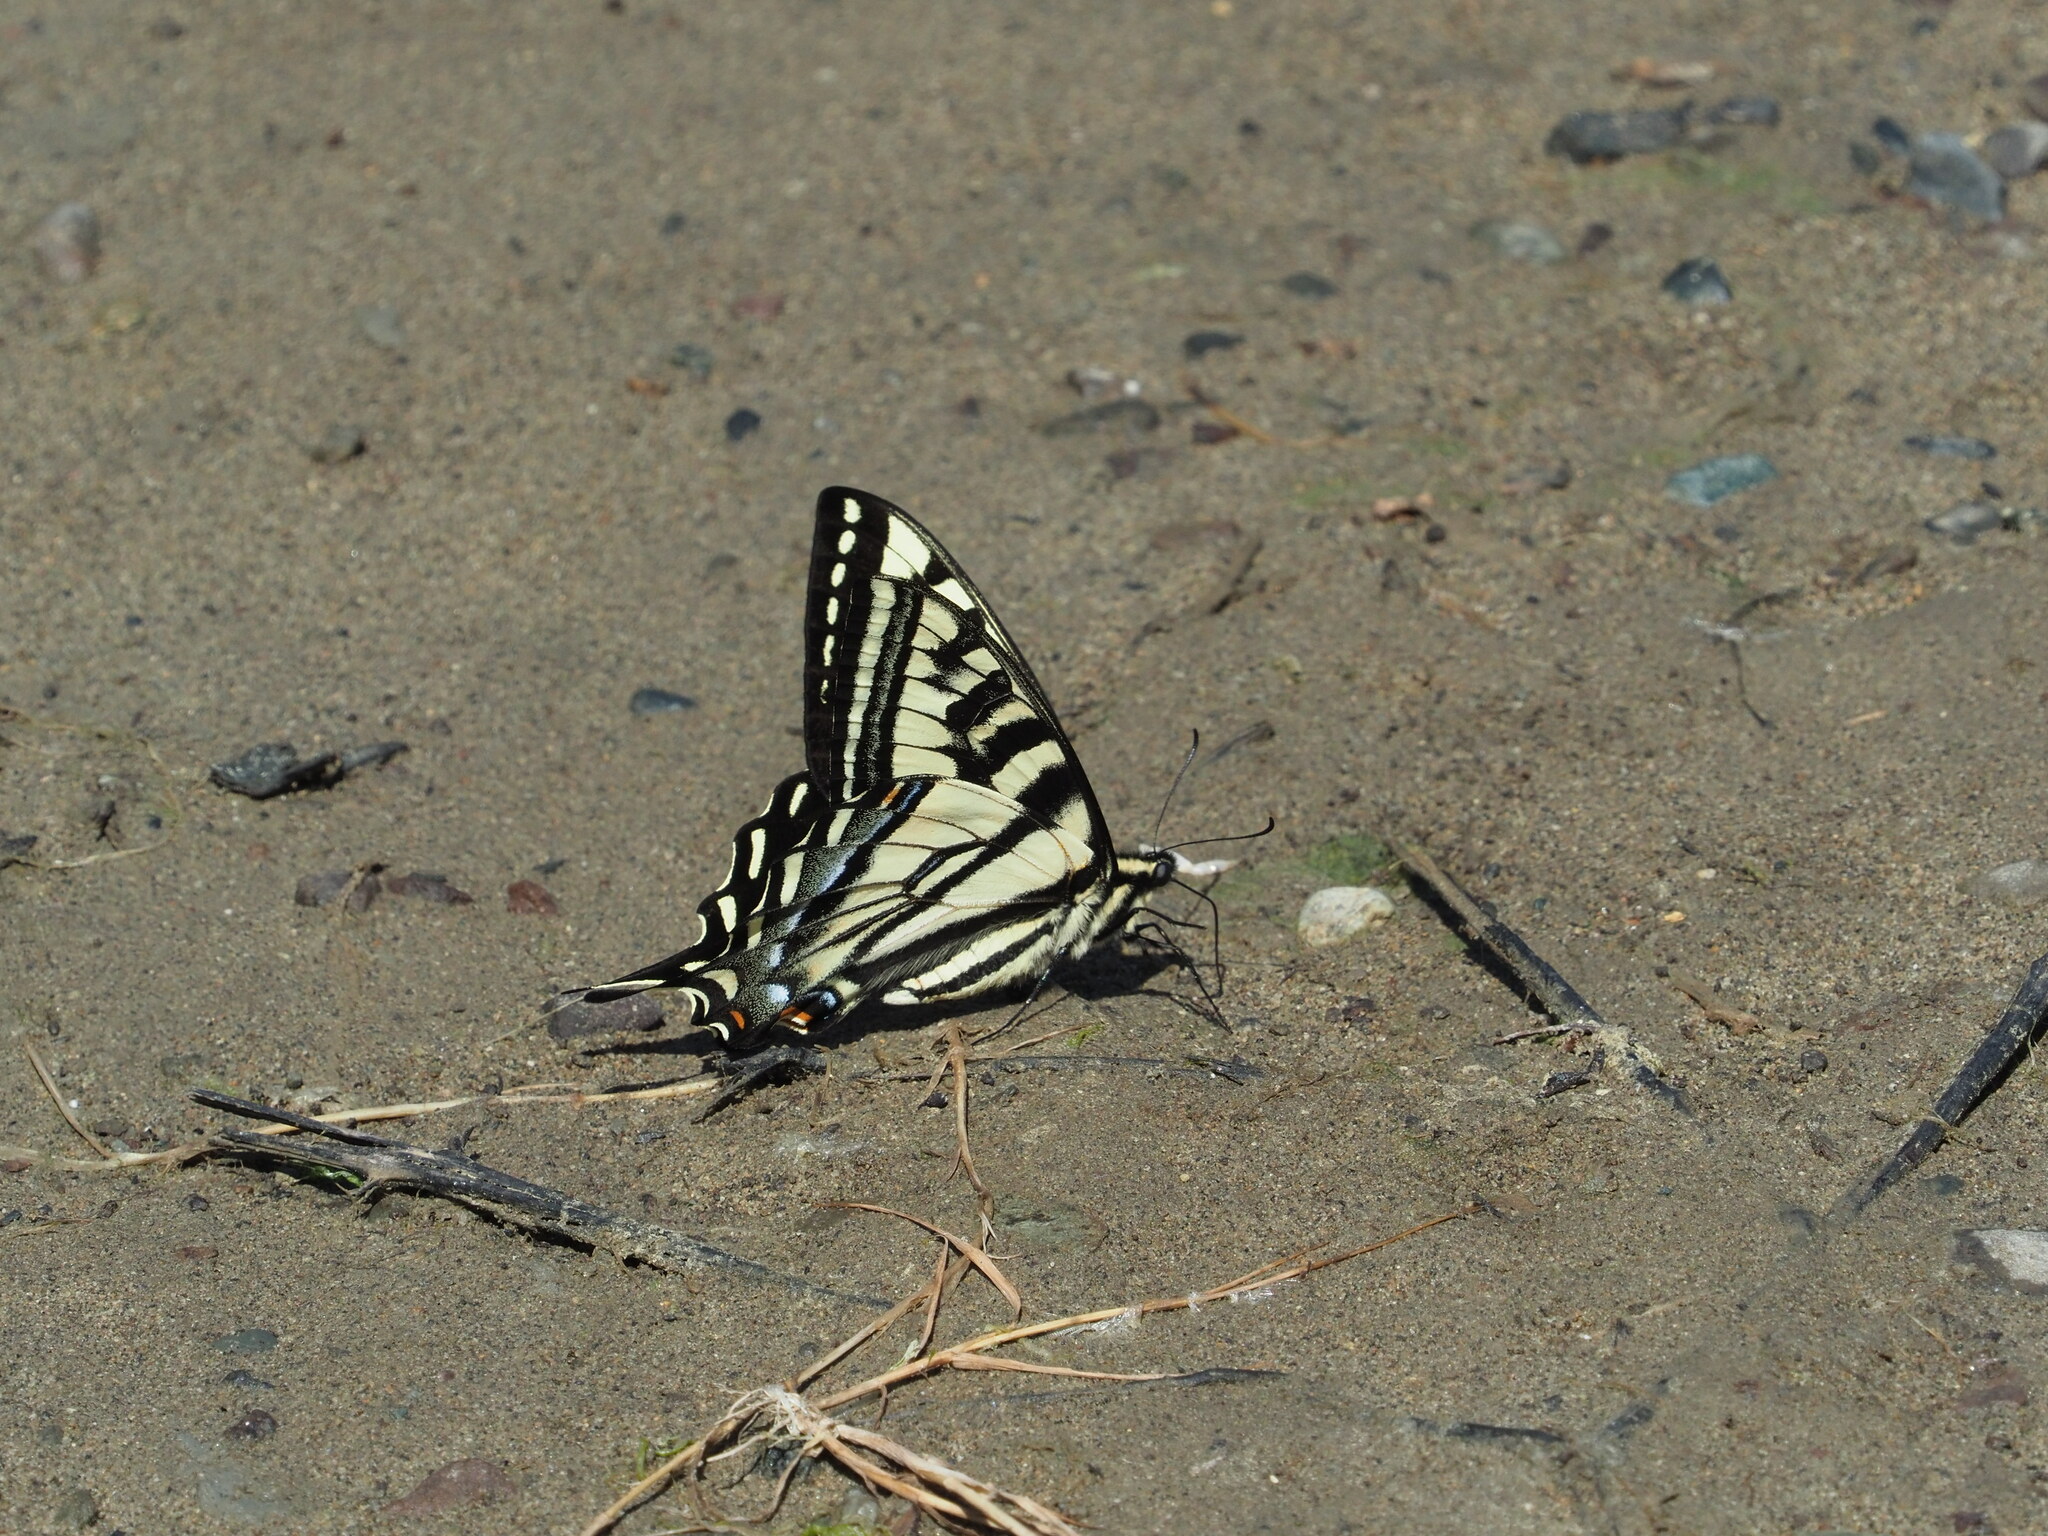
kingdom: Animalia
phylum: Arthropoda
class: Insecta
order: Lepidoptera
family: Papilionidae
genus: Papilio
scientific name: Papilio eurymedon
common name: Pale tiger swallowtail
